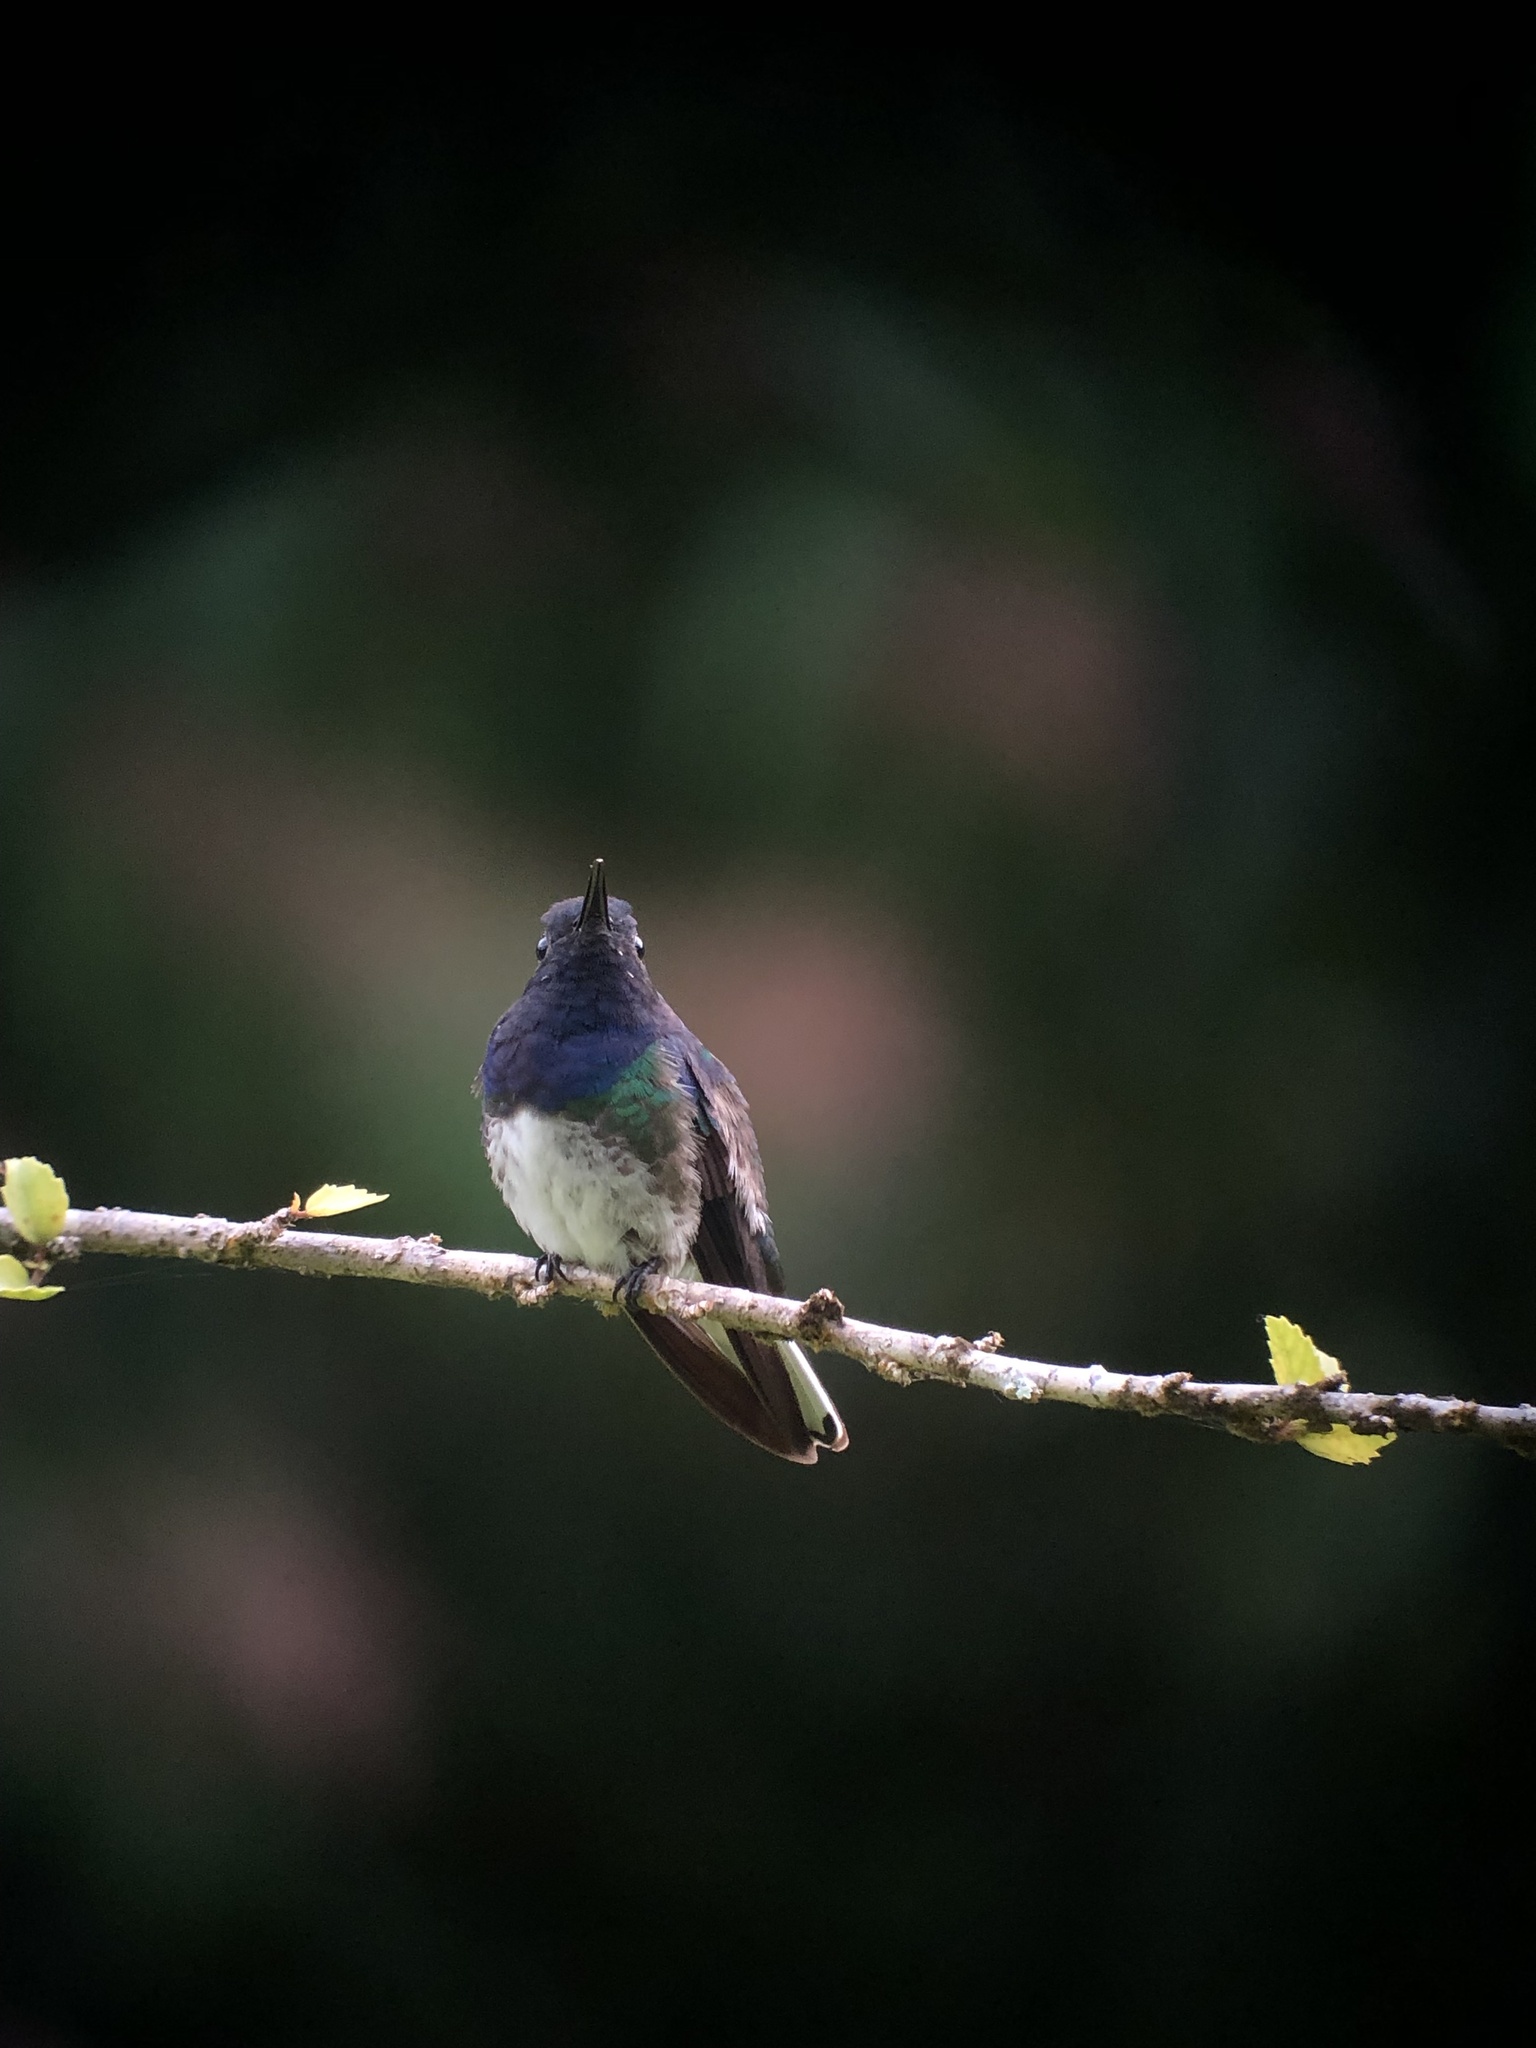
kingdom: Animalia
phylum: Chordata
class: Aves
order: Apodiformes
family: Trochilidae
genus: Florisuga
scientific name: Florisuga mellivora
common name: White-necked jacobin
